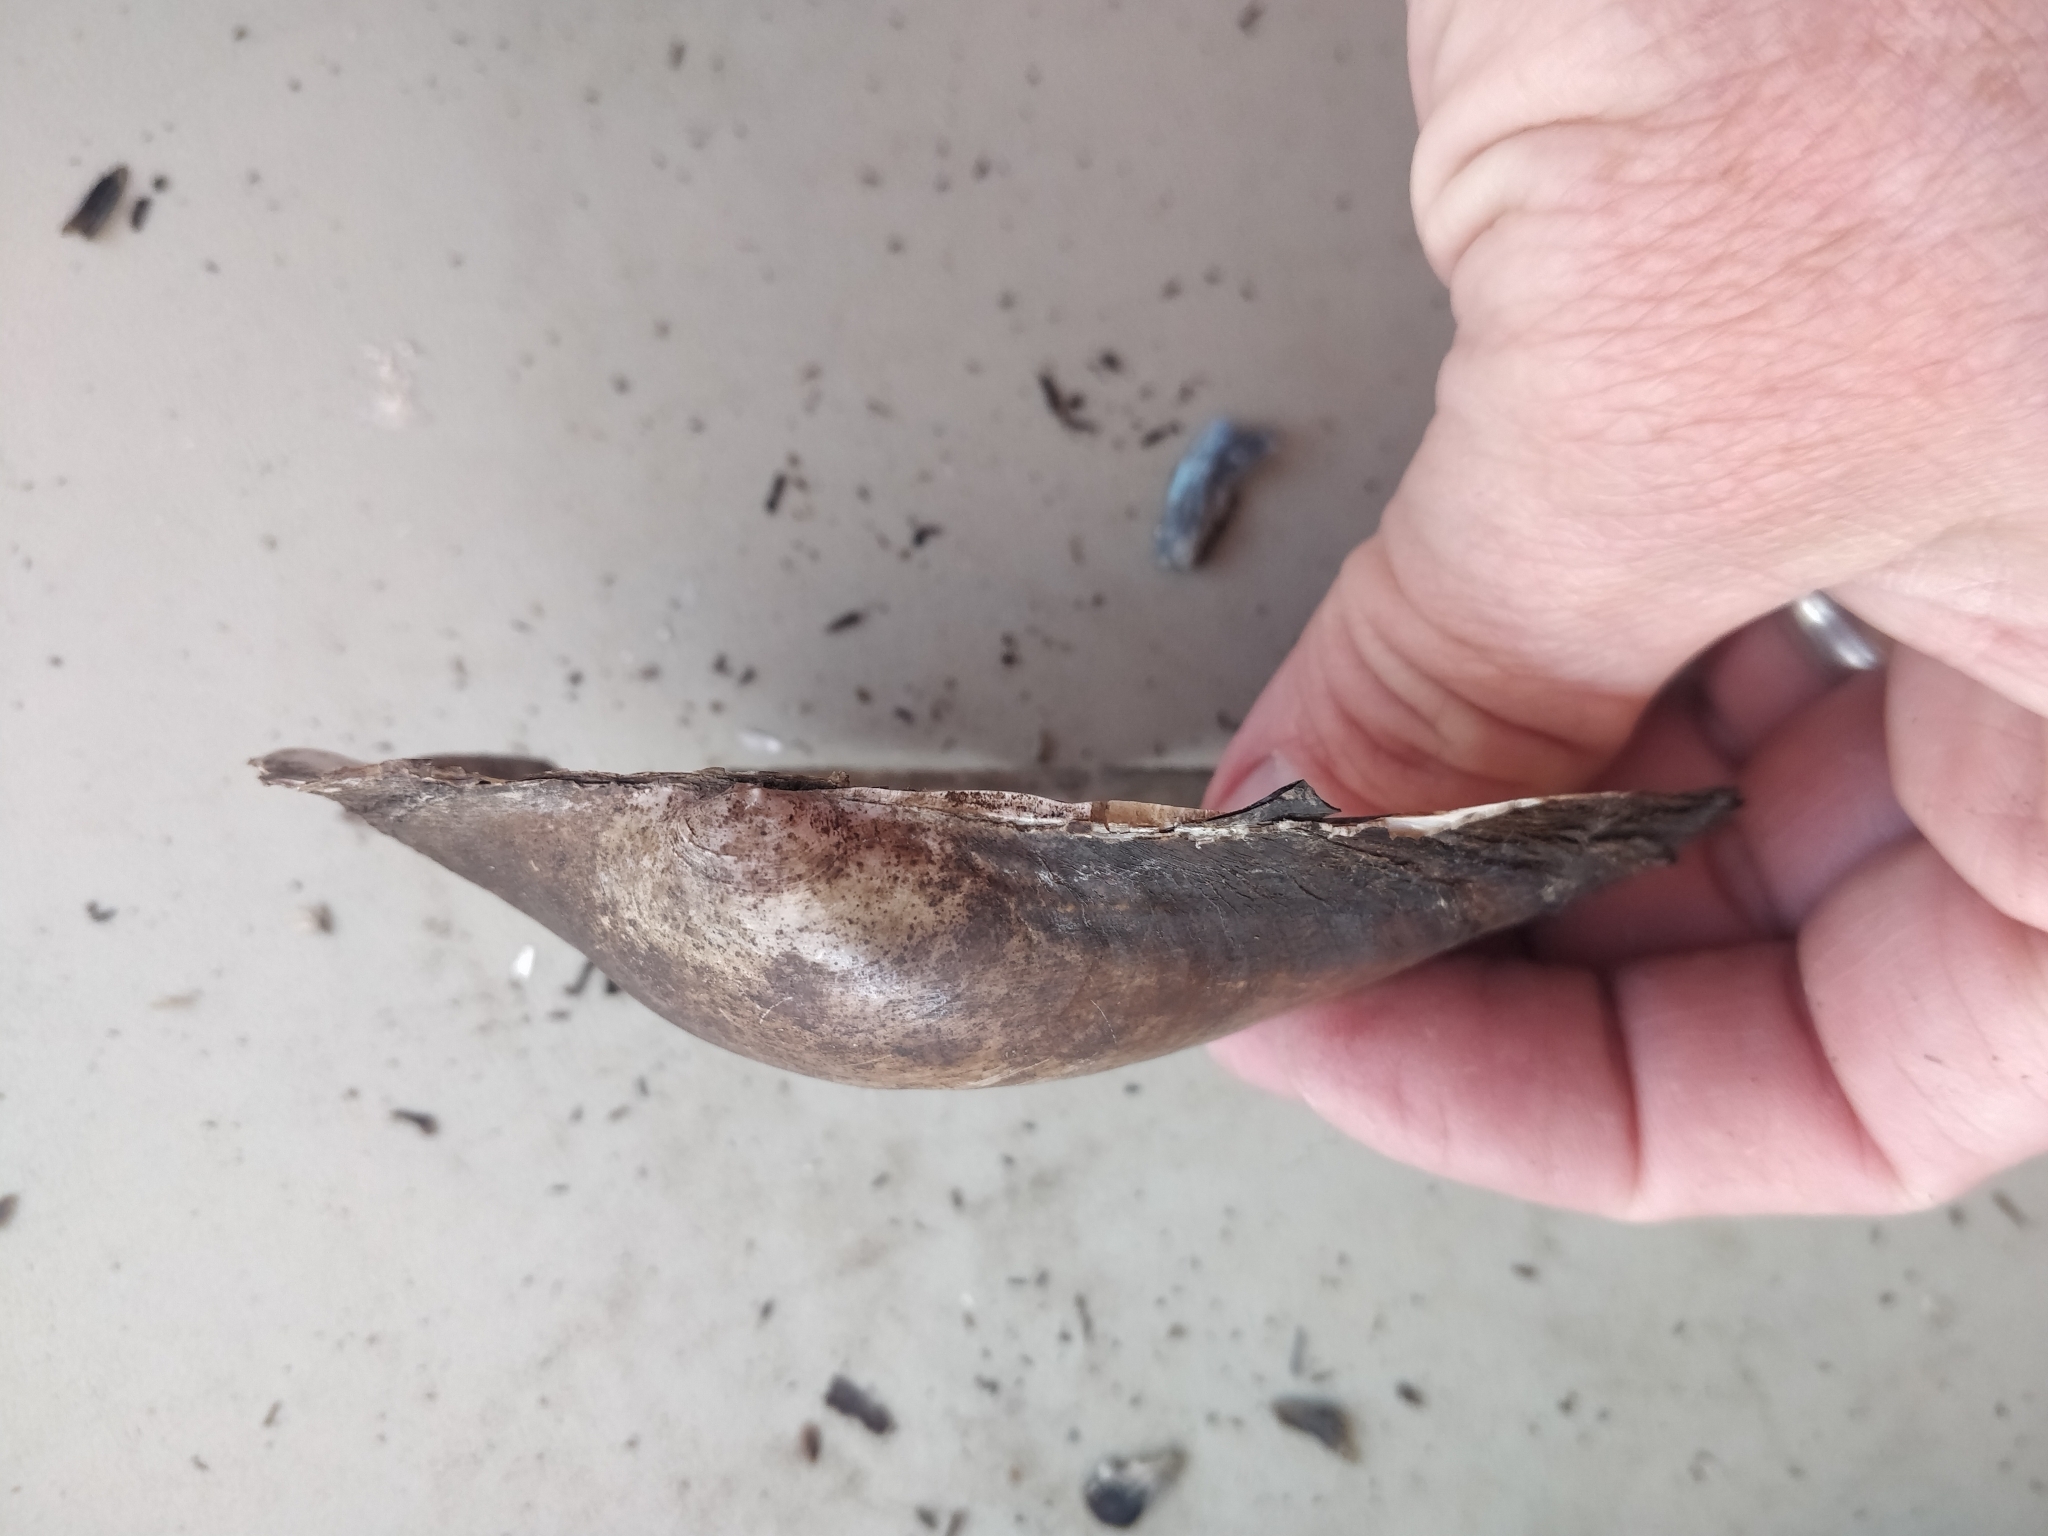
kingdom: Animalia
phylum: Mollusca
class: Bivalvia
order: Unionida
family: Unionidae
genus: Pyganodon
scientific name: Pyganodon grandis
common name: Giant floater
